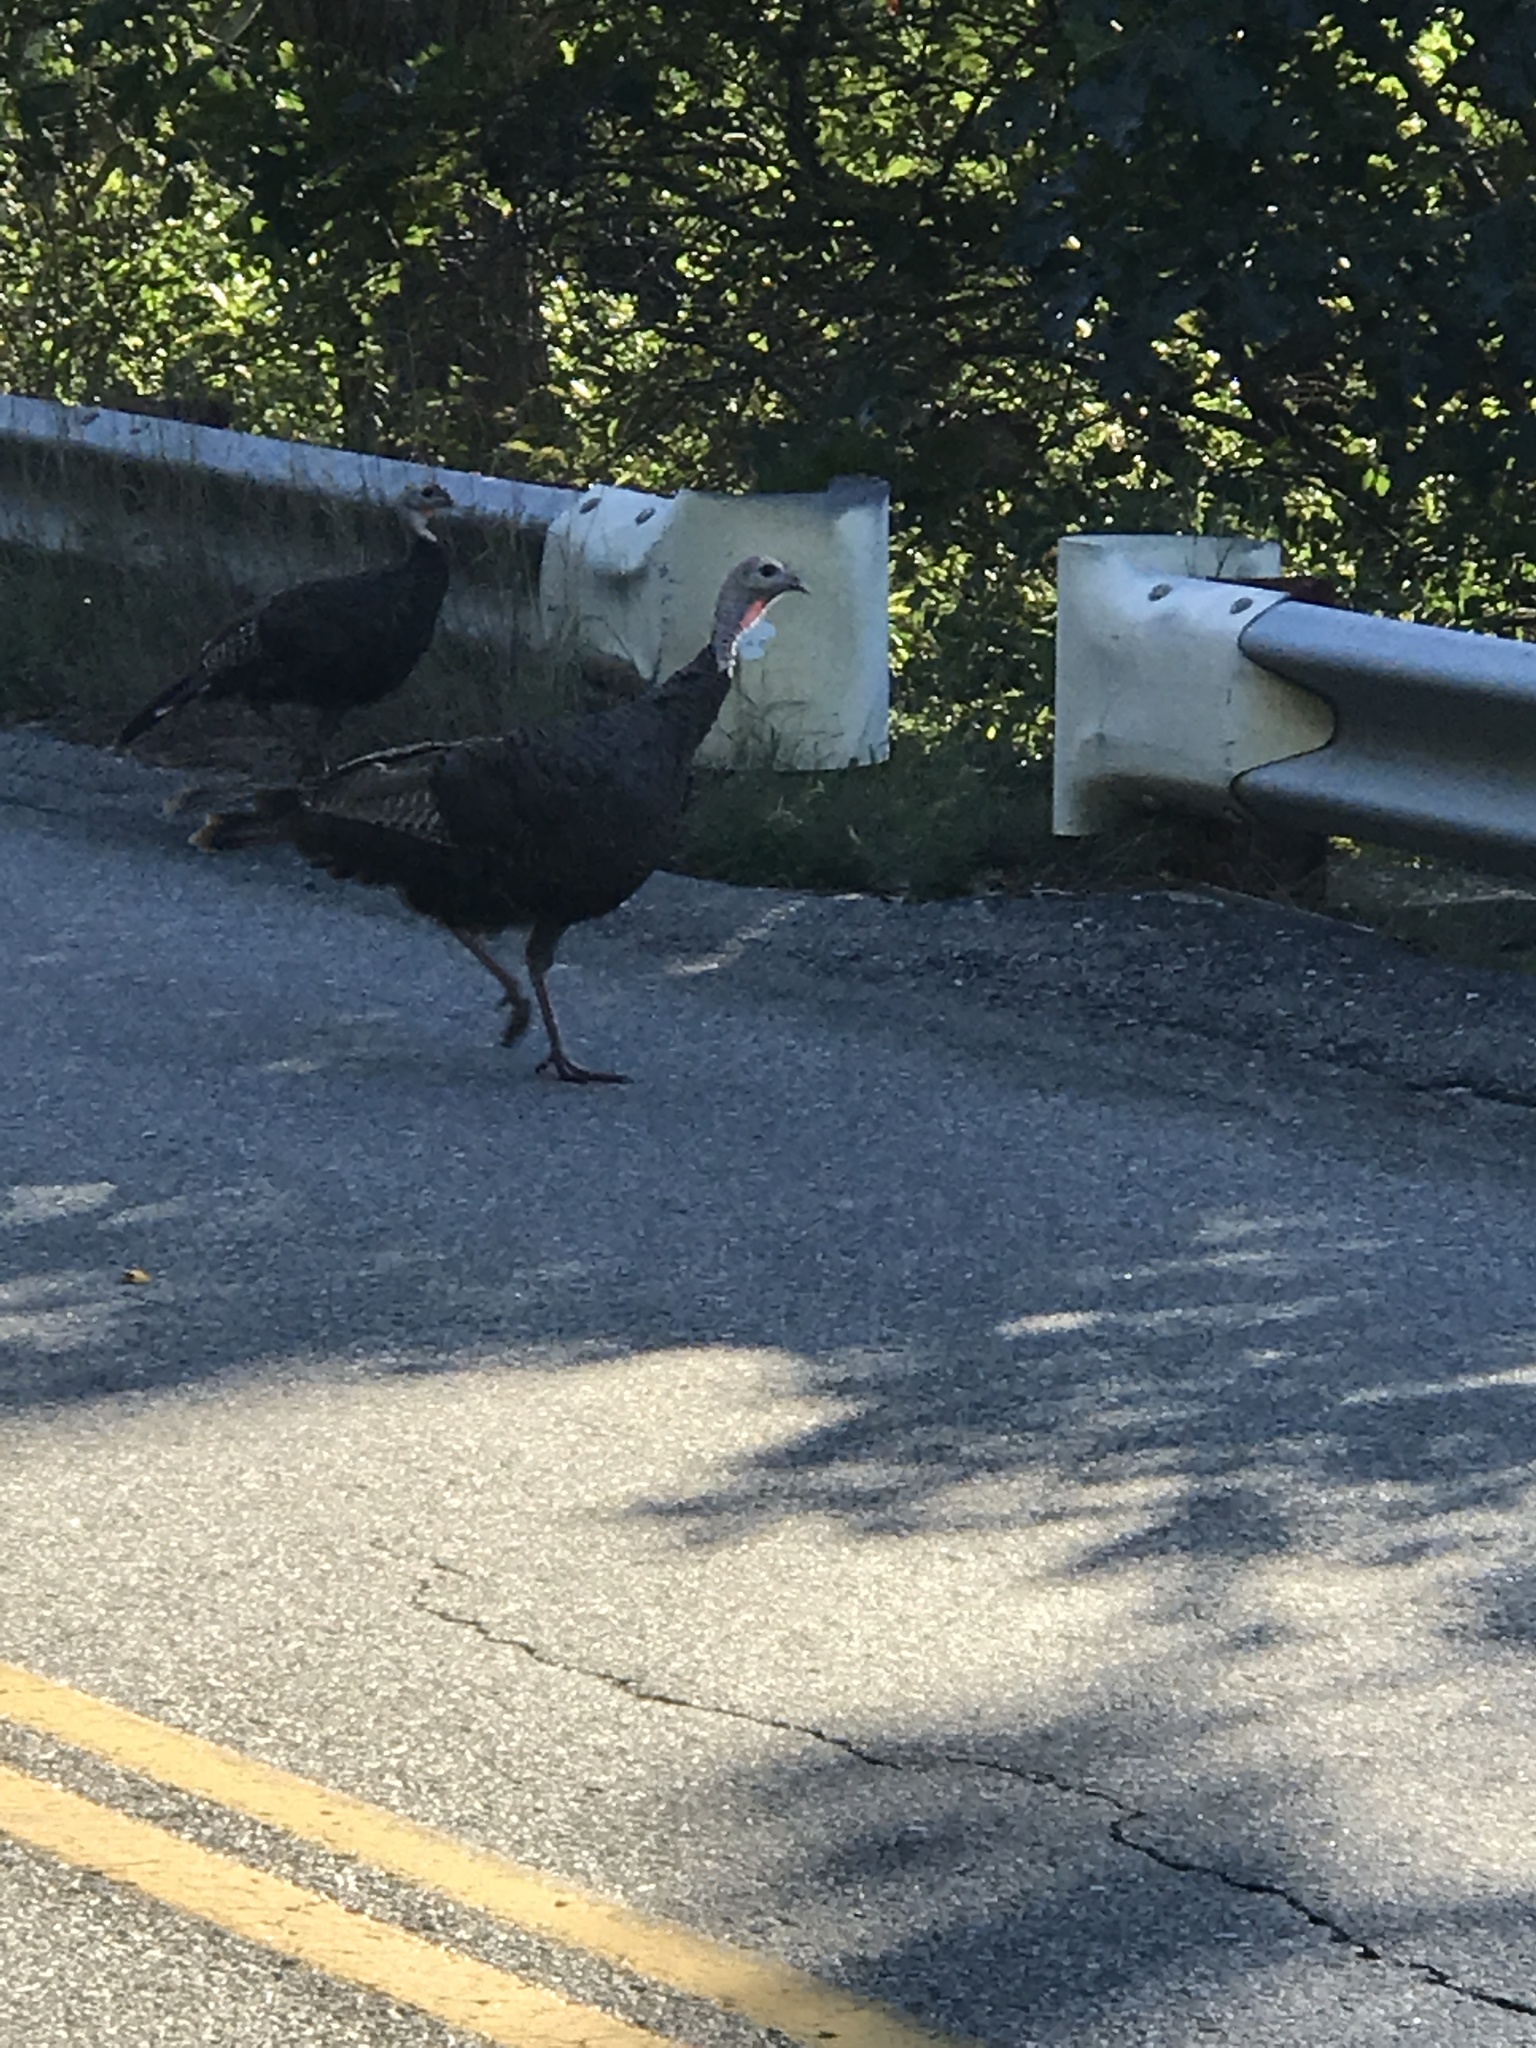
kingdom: Animalia
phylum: Chordata
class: Aves
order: Galliformes
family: Phasianidae
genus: Meleagris
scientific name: Meleagris gallopavo
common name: Wild turkey
